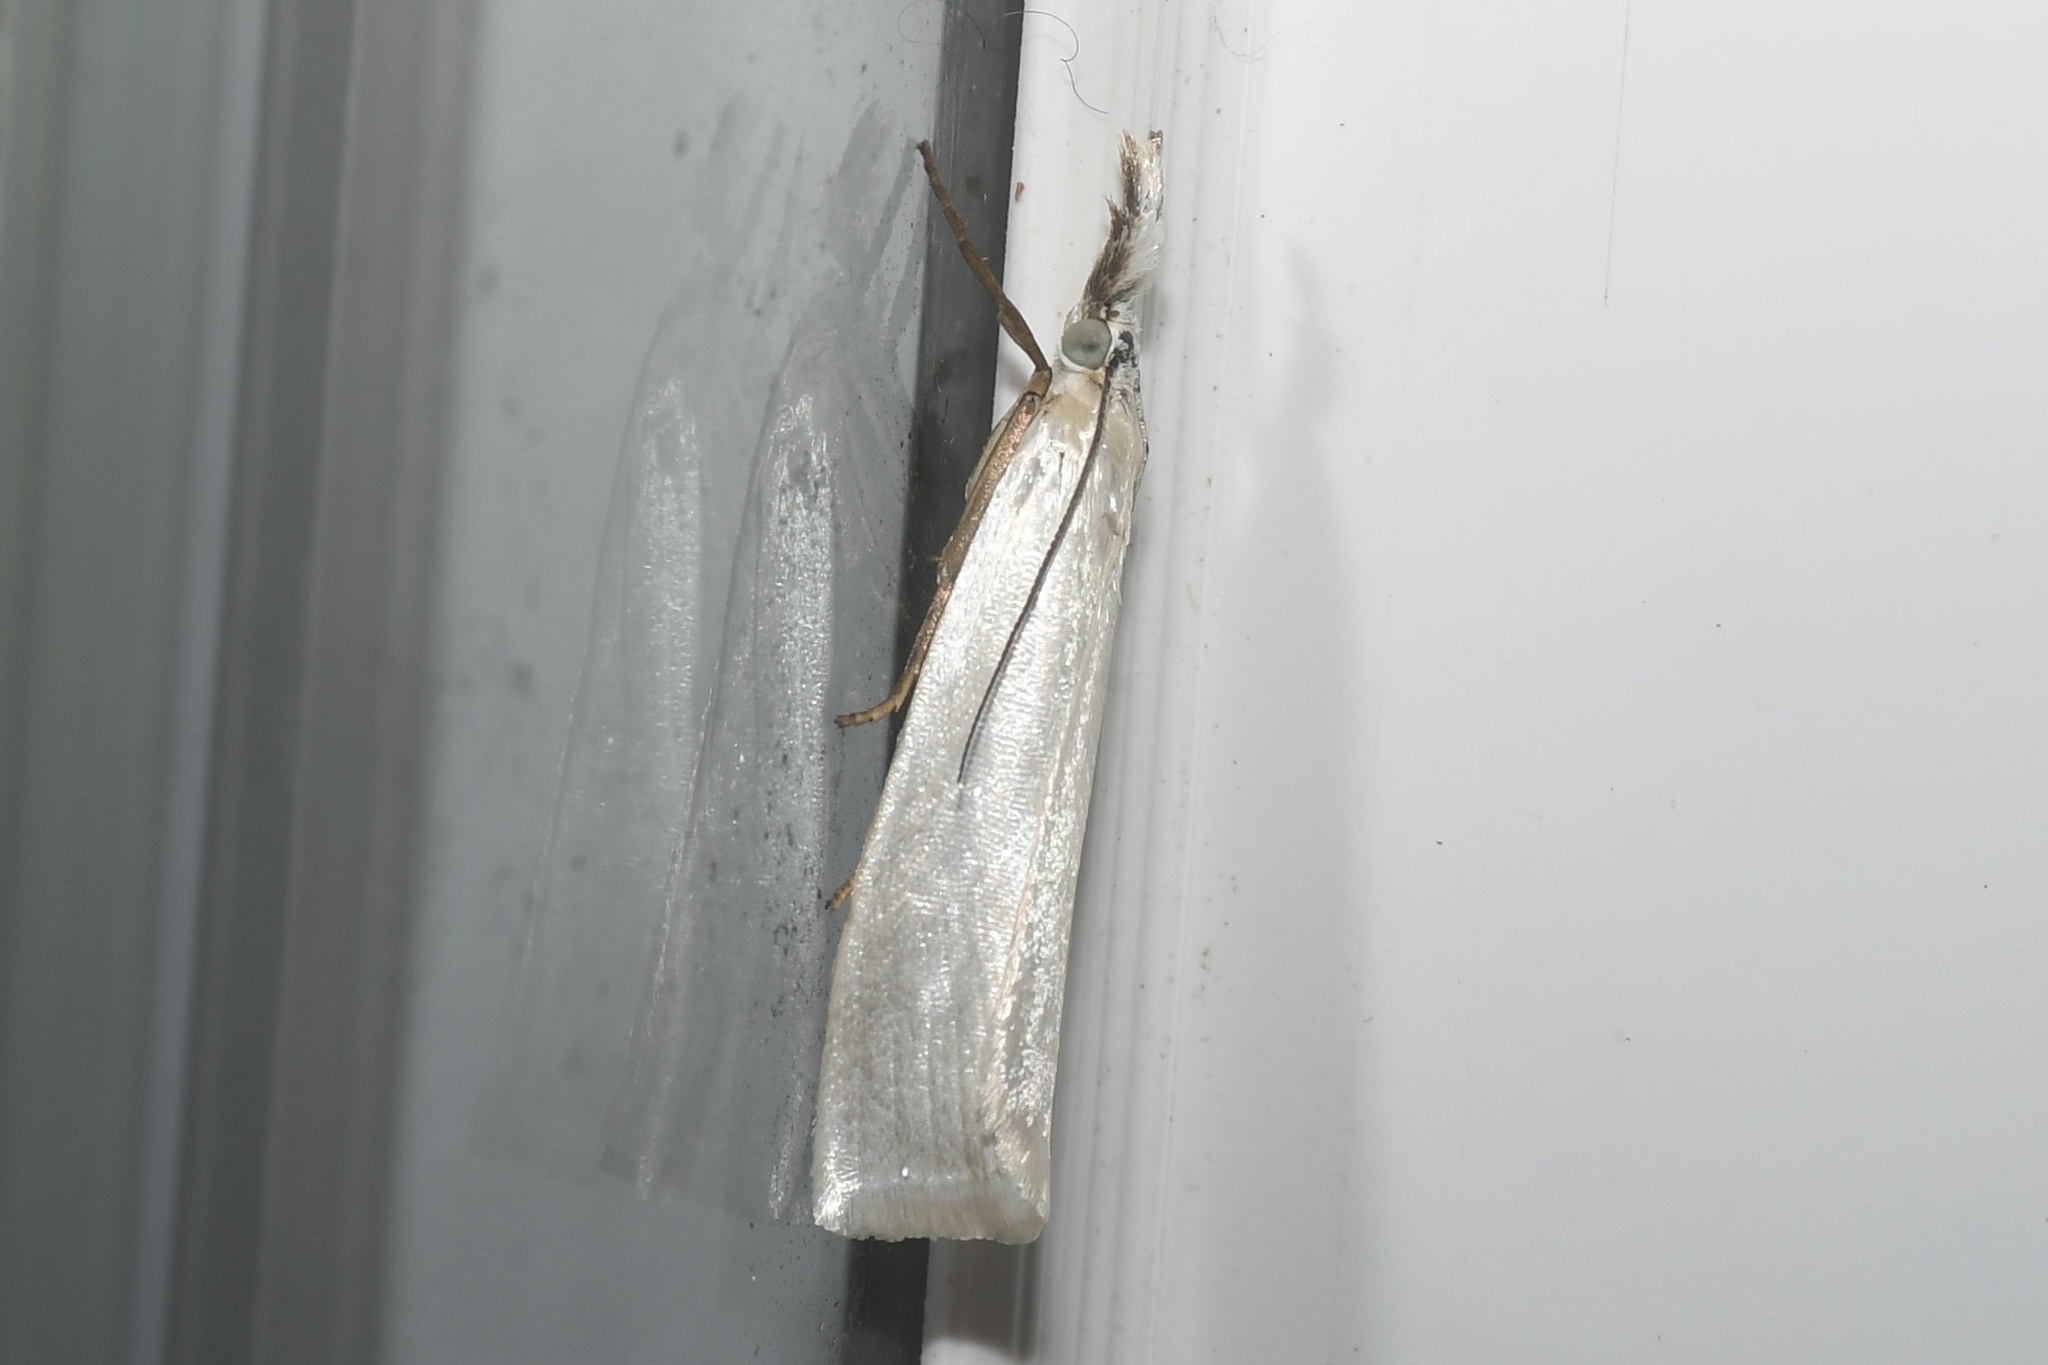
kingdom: Animalia
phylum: Arthropoda
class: Insecta
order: Lepidoptera
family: Crambidae
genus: Crambus
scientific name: Crambus perlellus
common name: Yellow satin veneer
